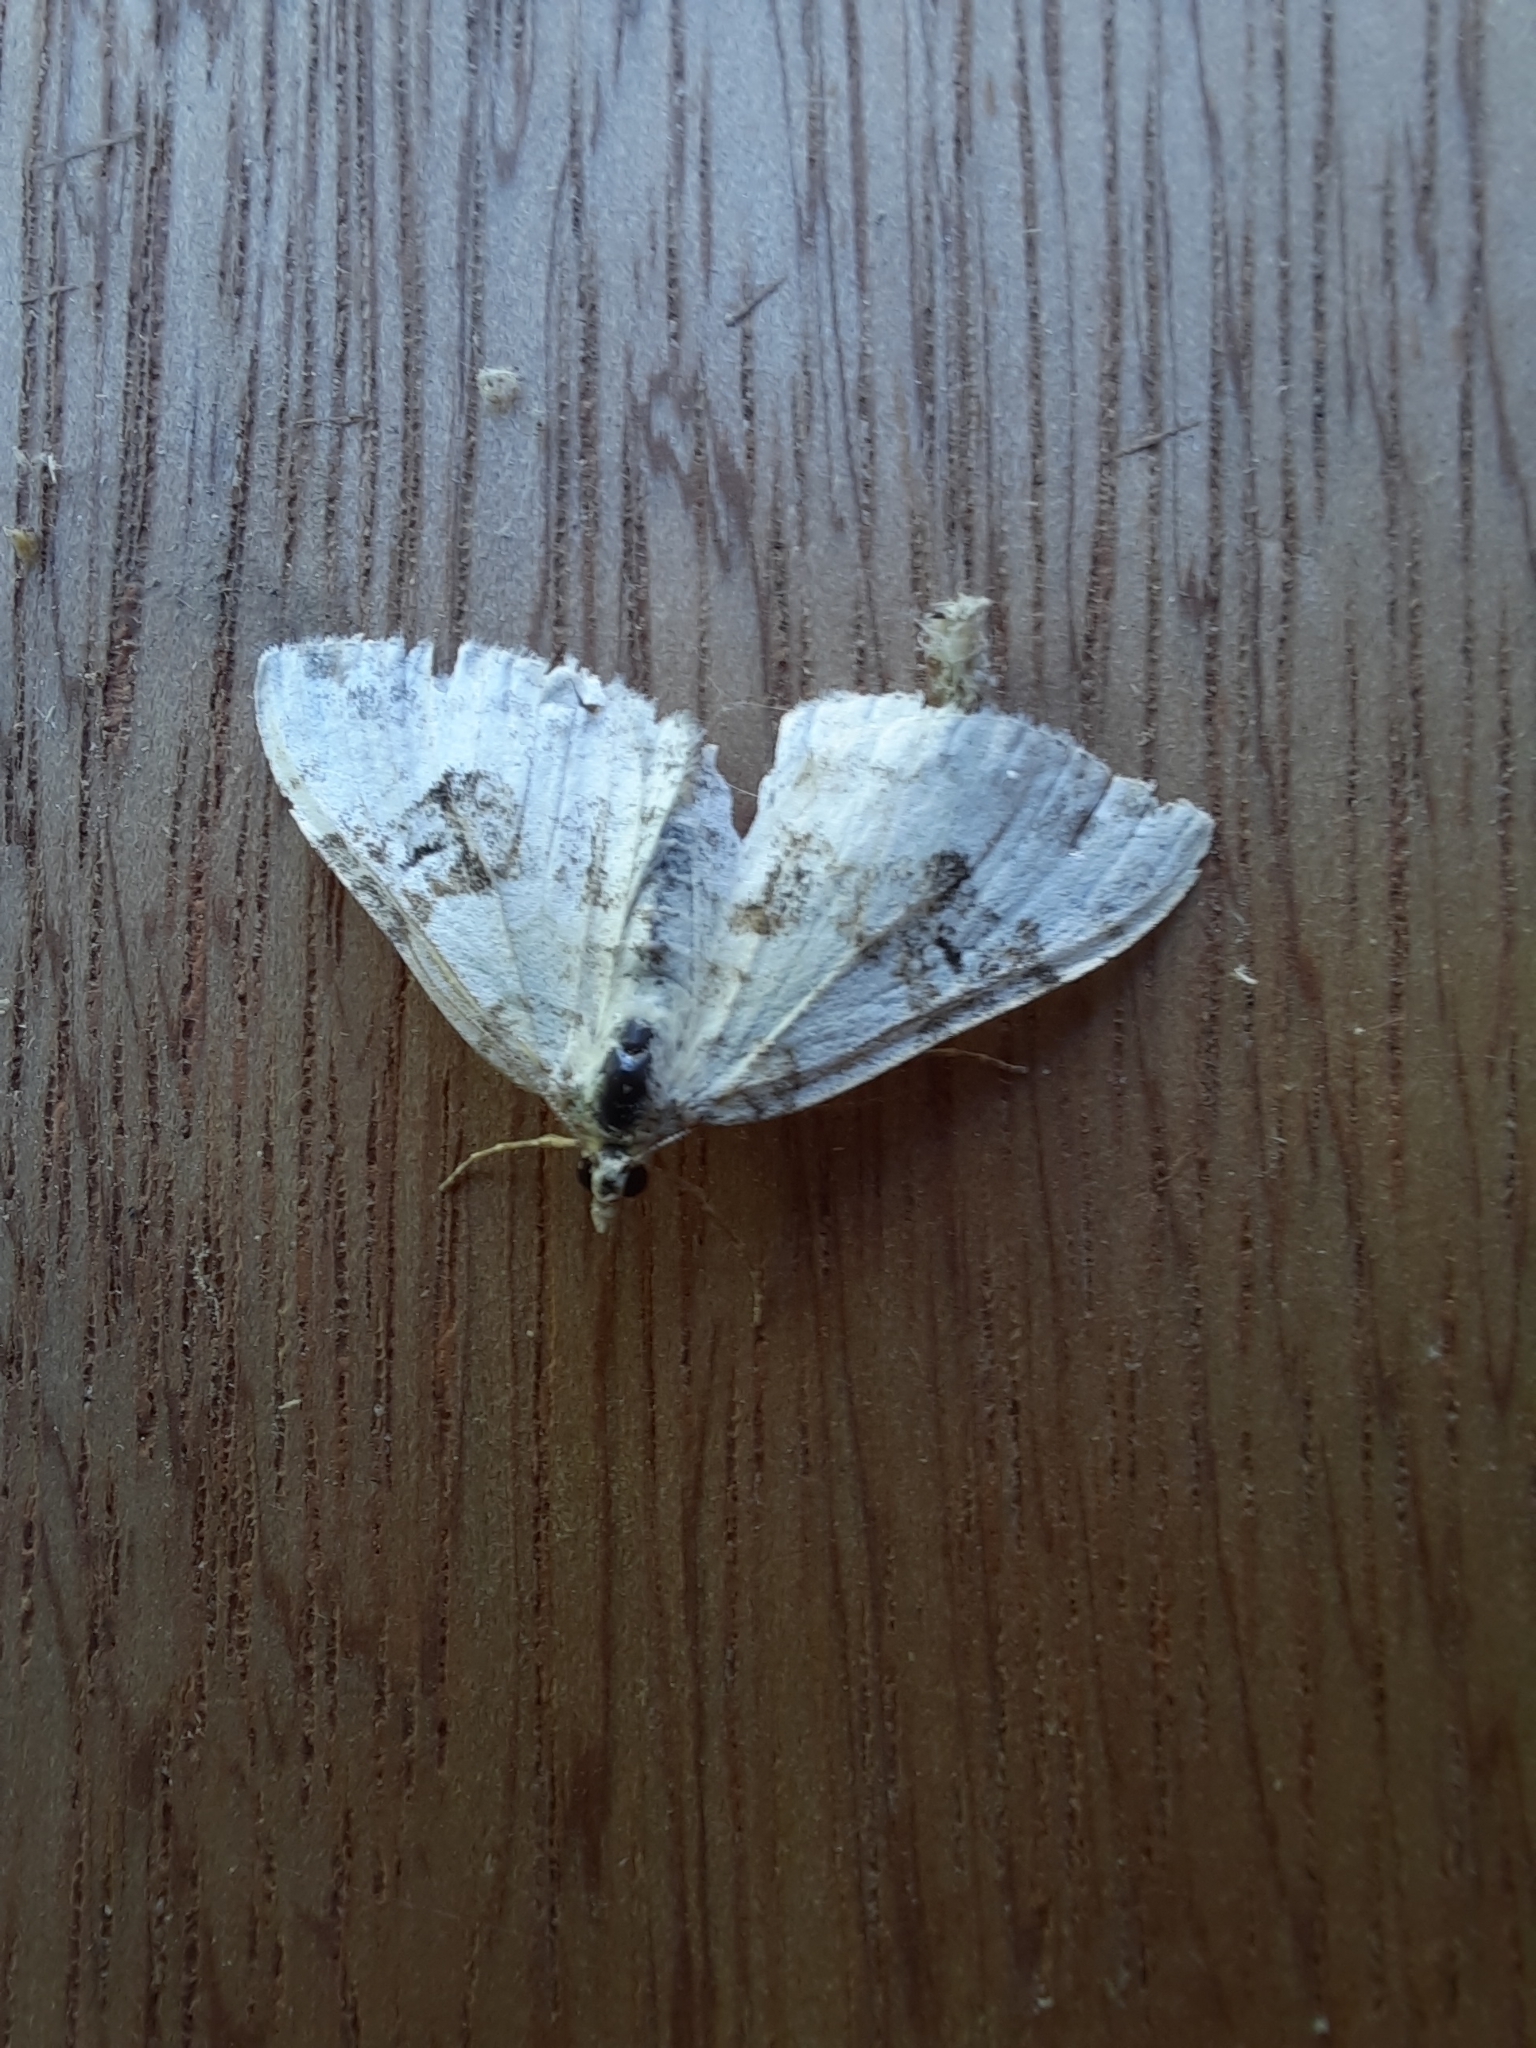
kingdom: Animalia
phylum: Arthropoda
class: Insecta
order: Lepidoptera
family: Geometridae
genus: Xanthorhoe
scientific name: Xanthorhoe montanata
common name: Silver-ground carpet
